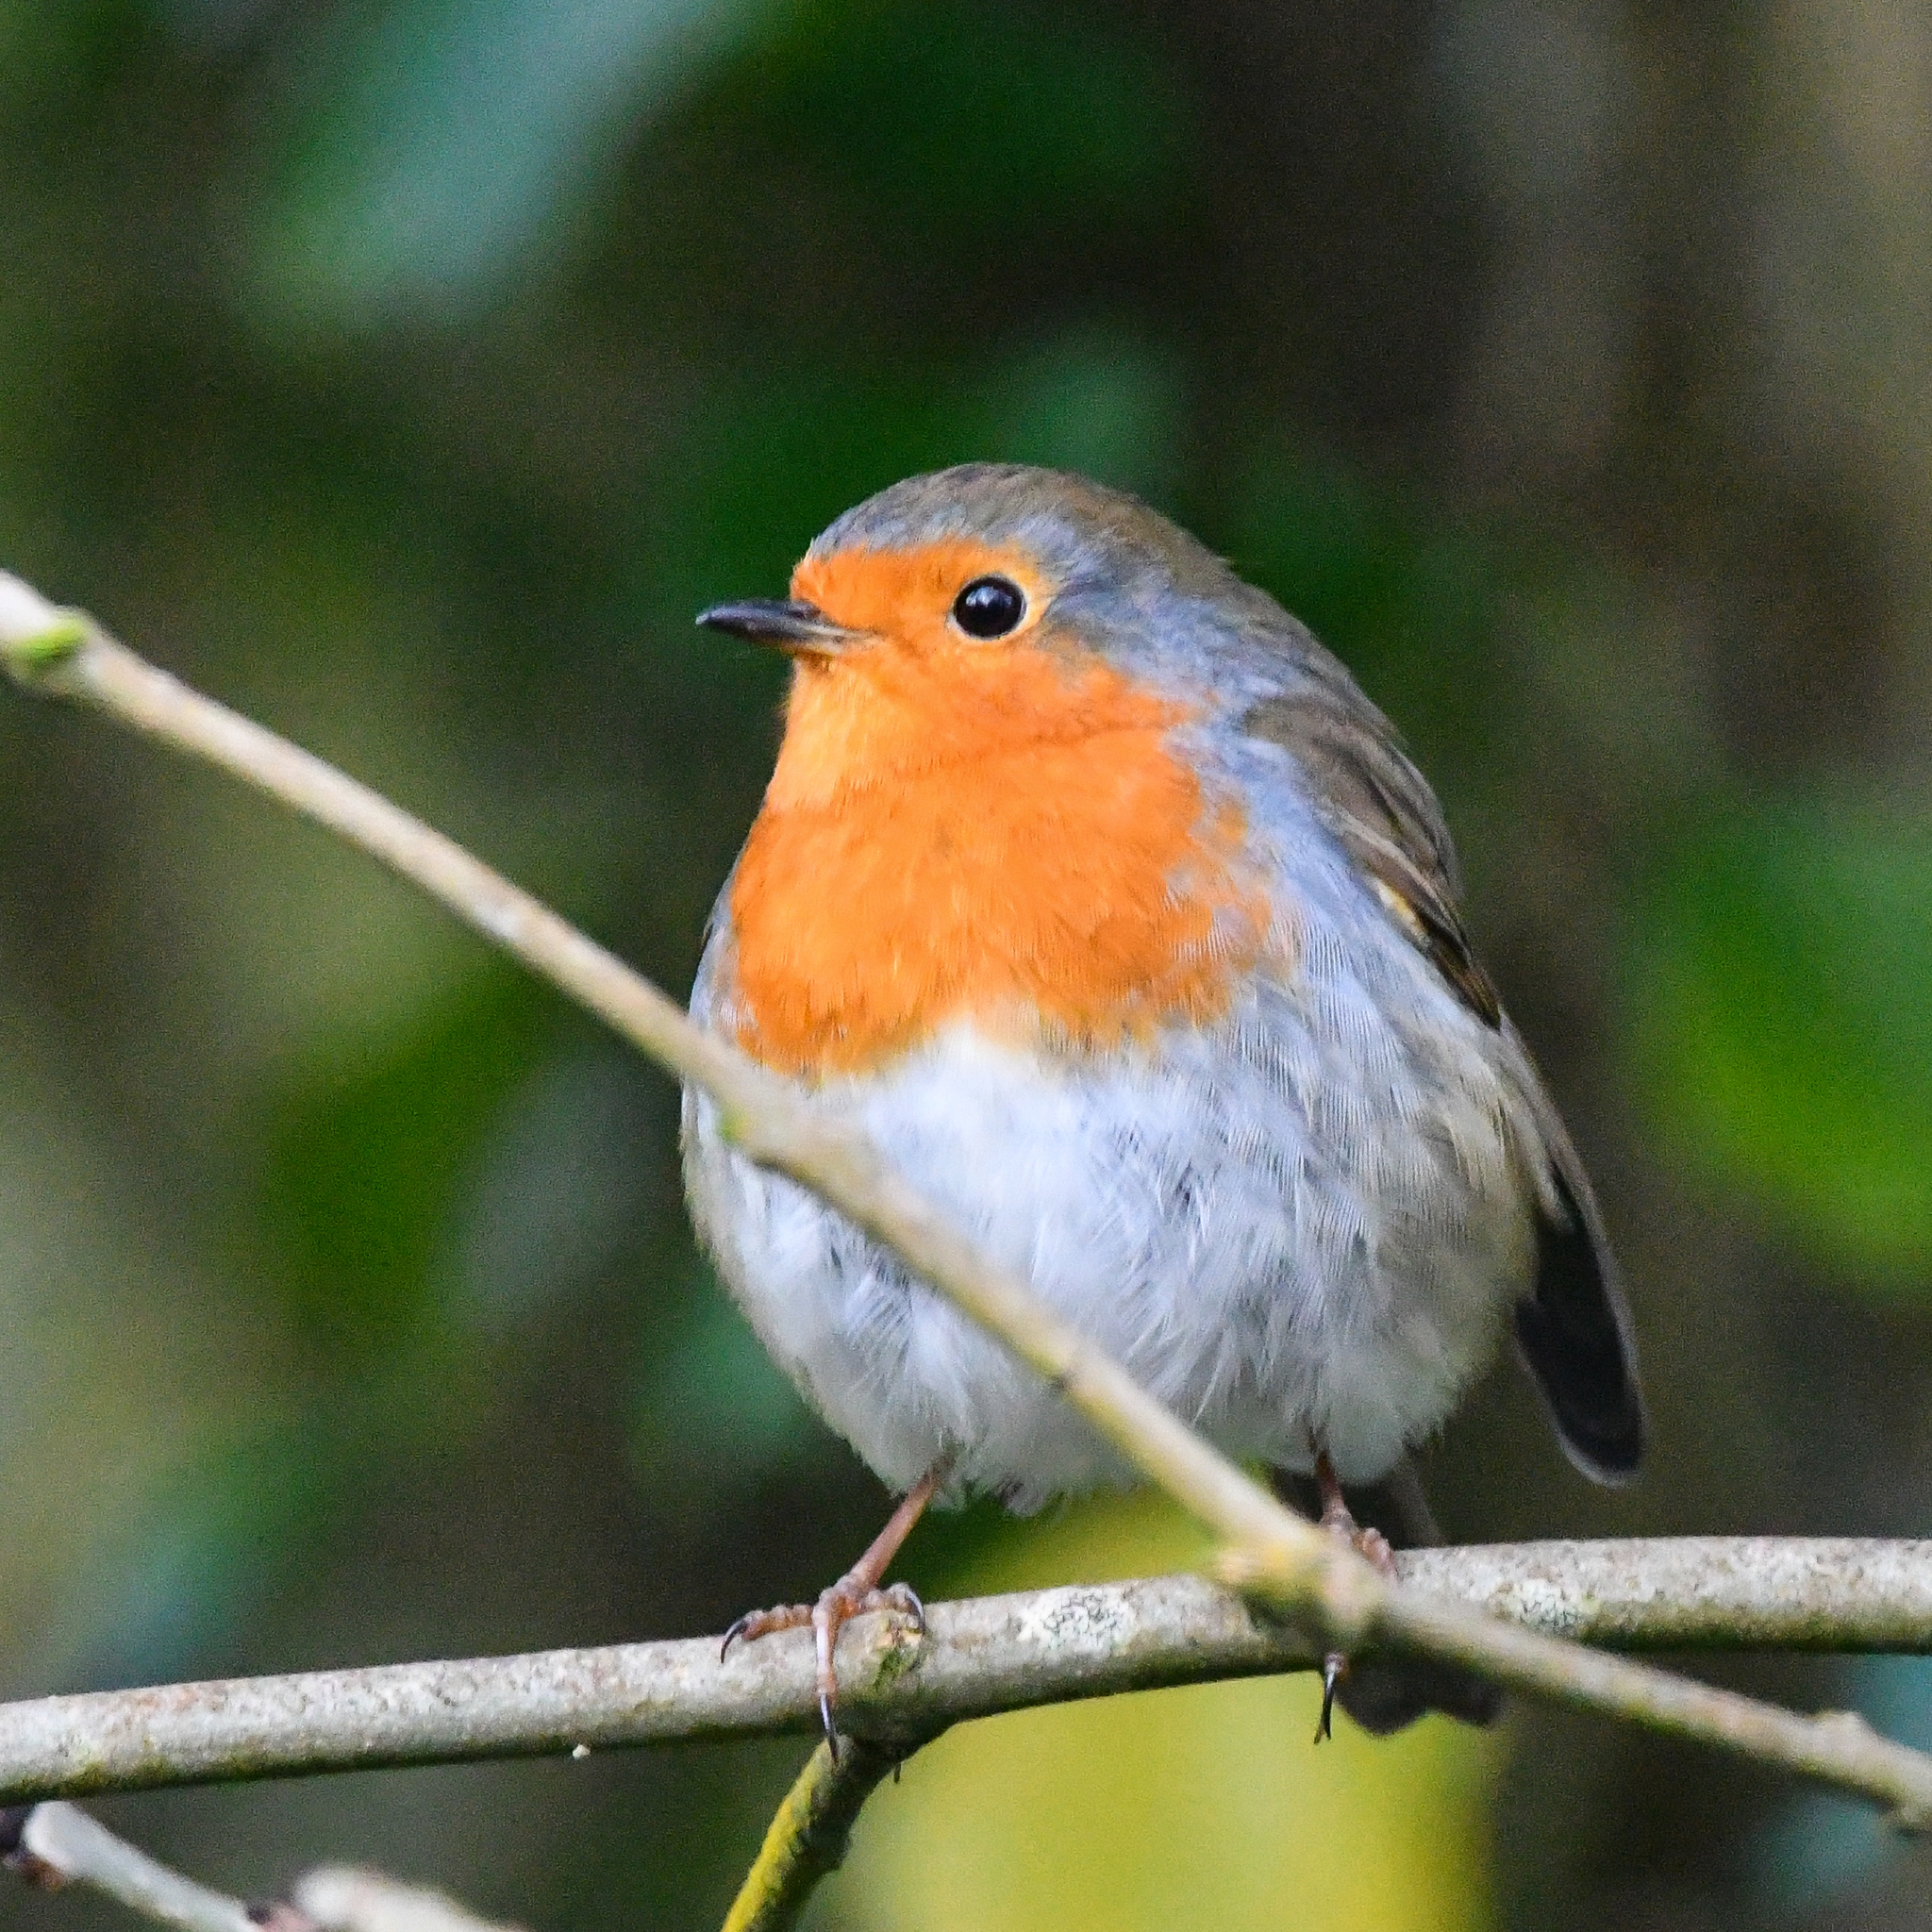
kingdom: Animalia
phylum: Chordata
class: Aves
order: Passeriformes
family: Muscicapidae
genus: Erithacus
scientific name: Erithacus rubecula
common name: European robin
